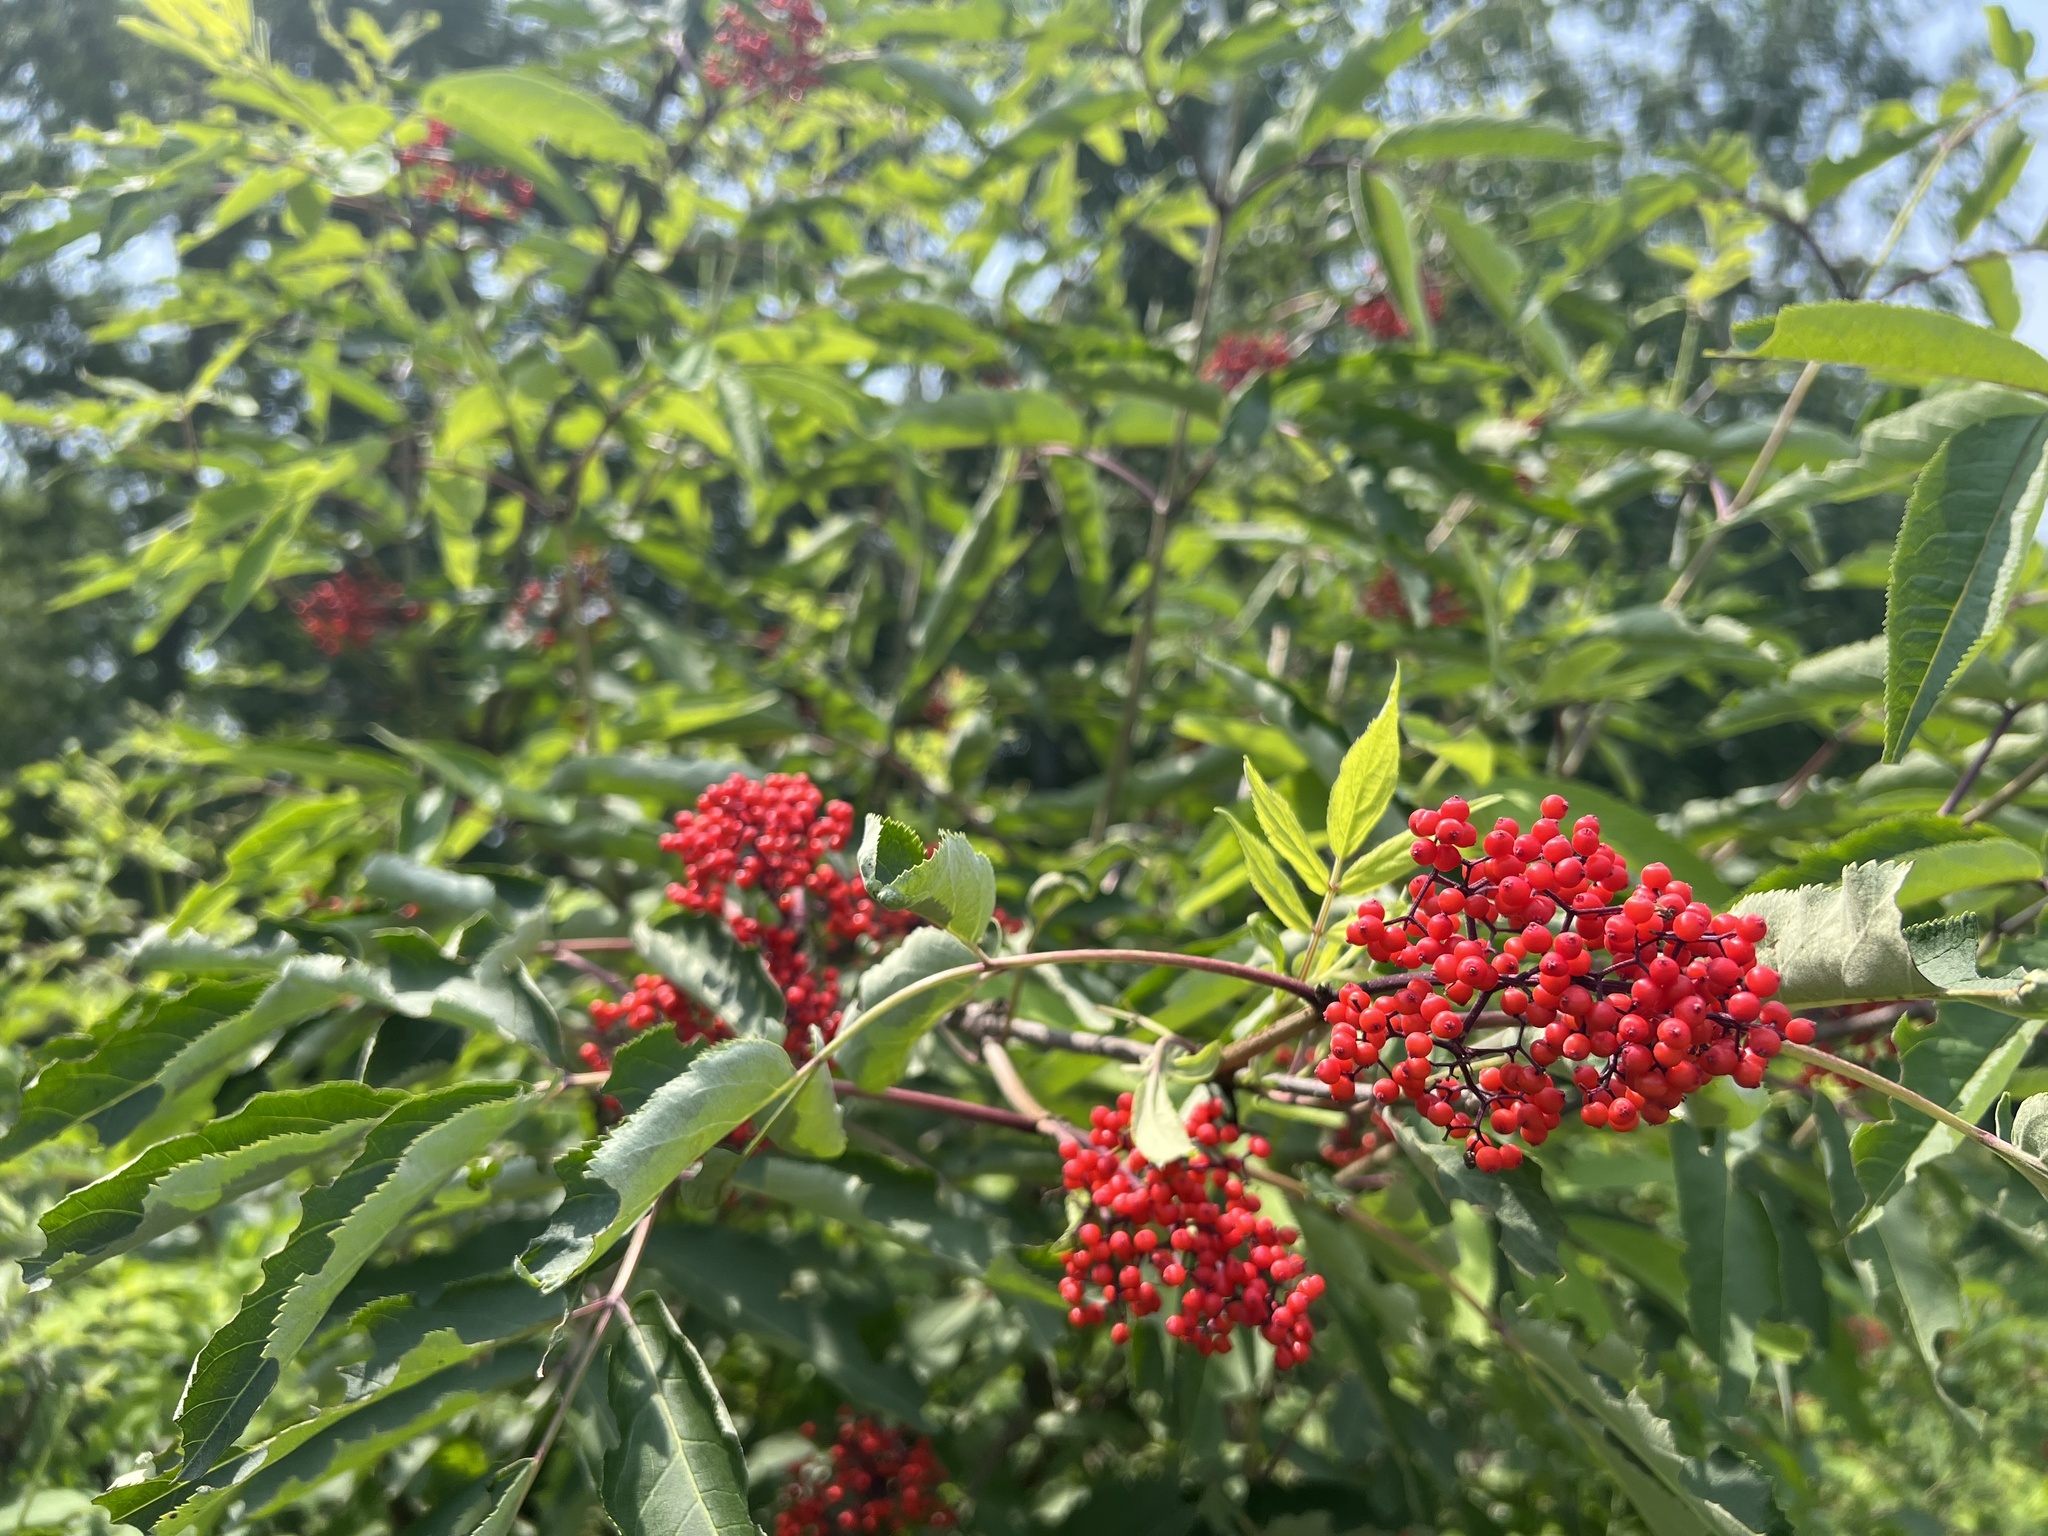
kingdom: Plantae
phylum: Tracheophyta
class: Magnoliopsida
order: Dipsacales
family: Viburnaceae
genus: Sambucus
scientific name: Sambucus racemosa
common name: Red-berried elder
